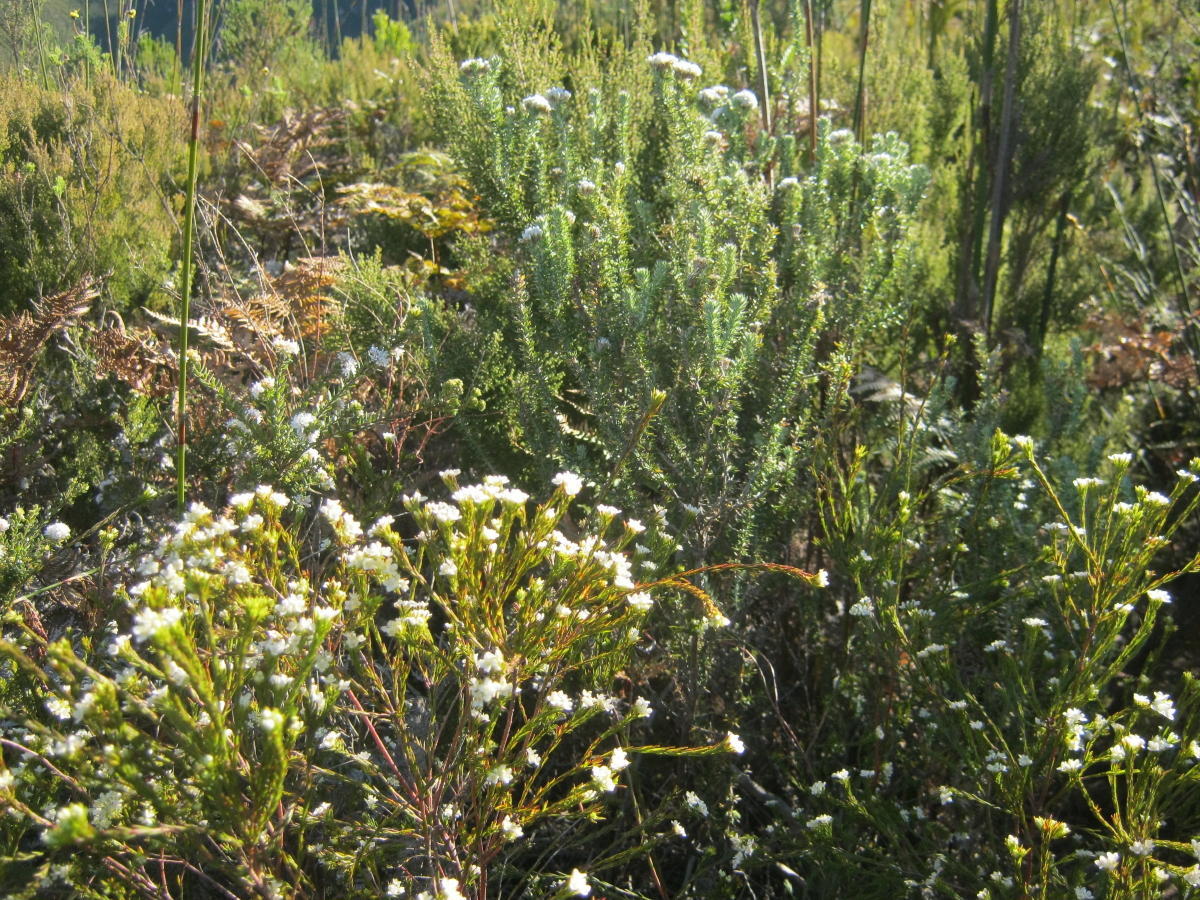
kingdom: Plantae
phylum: Tracheophyta
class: Magnoliopsida
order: Malvales
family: Thymelaeaceae
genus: Lachnaea
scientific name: Lachnaea diosmoides
